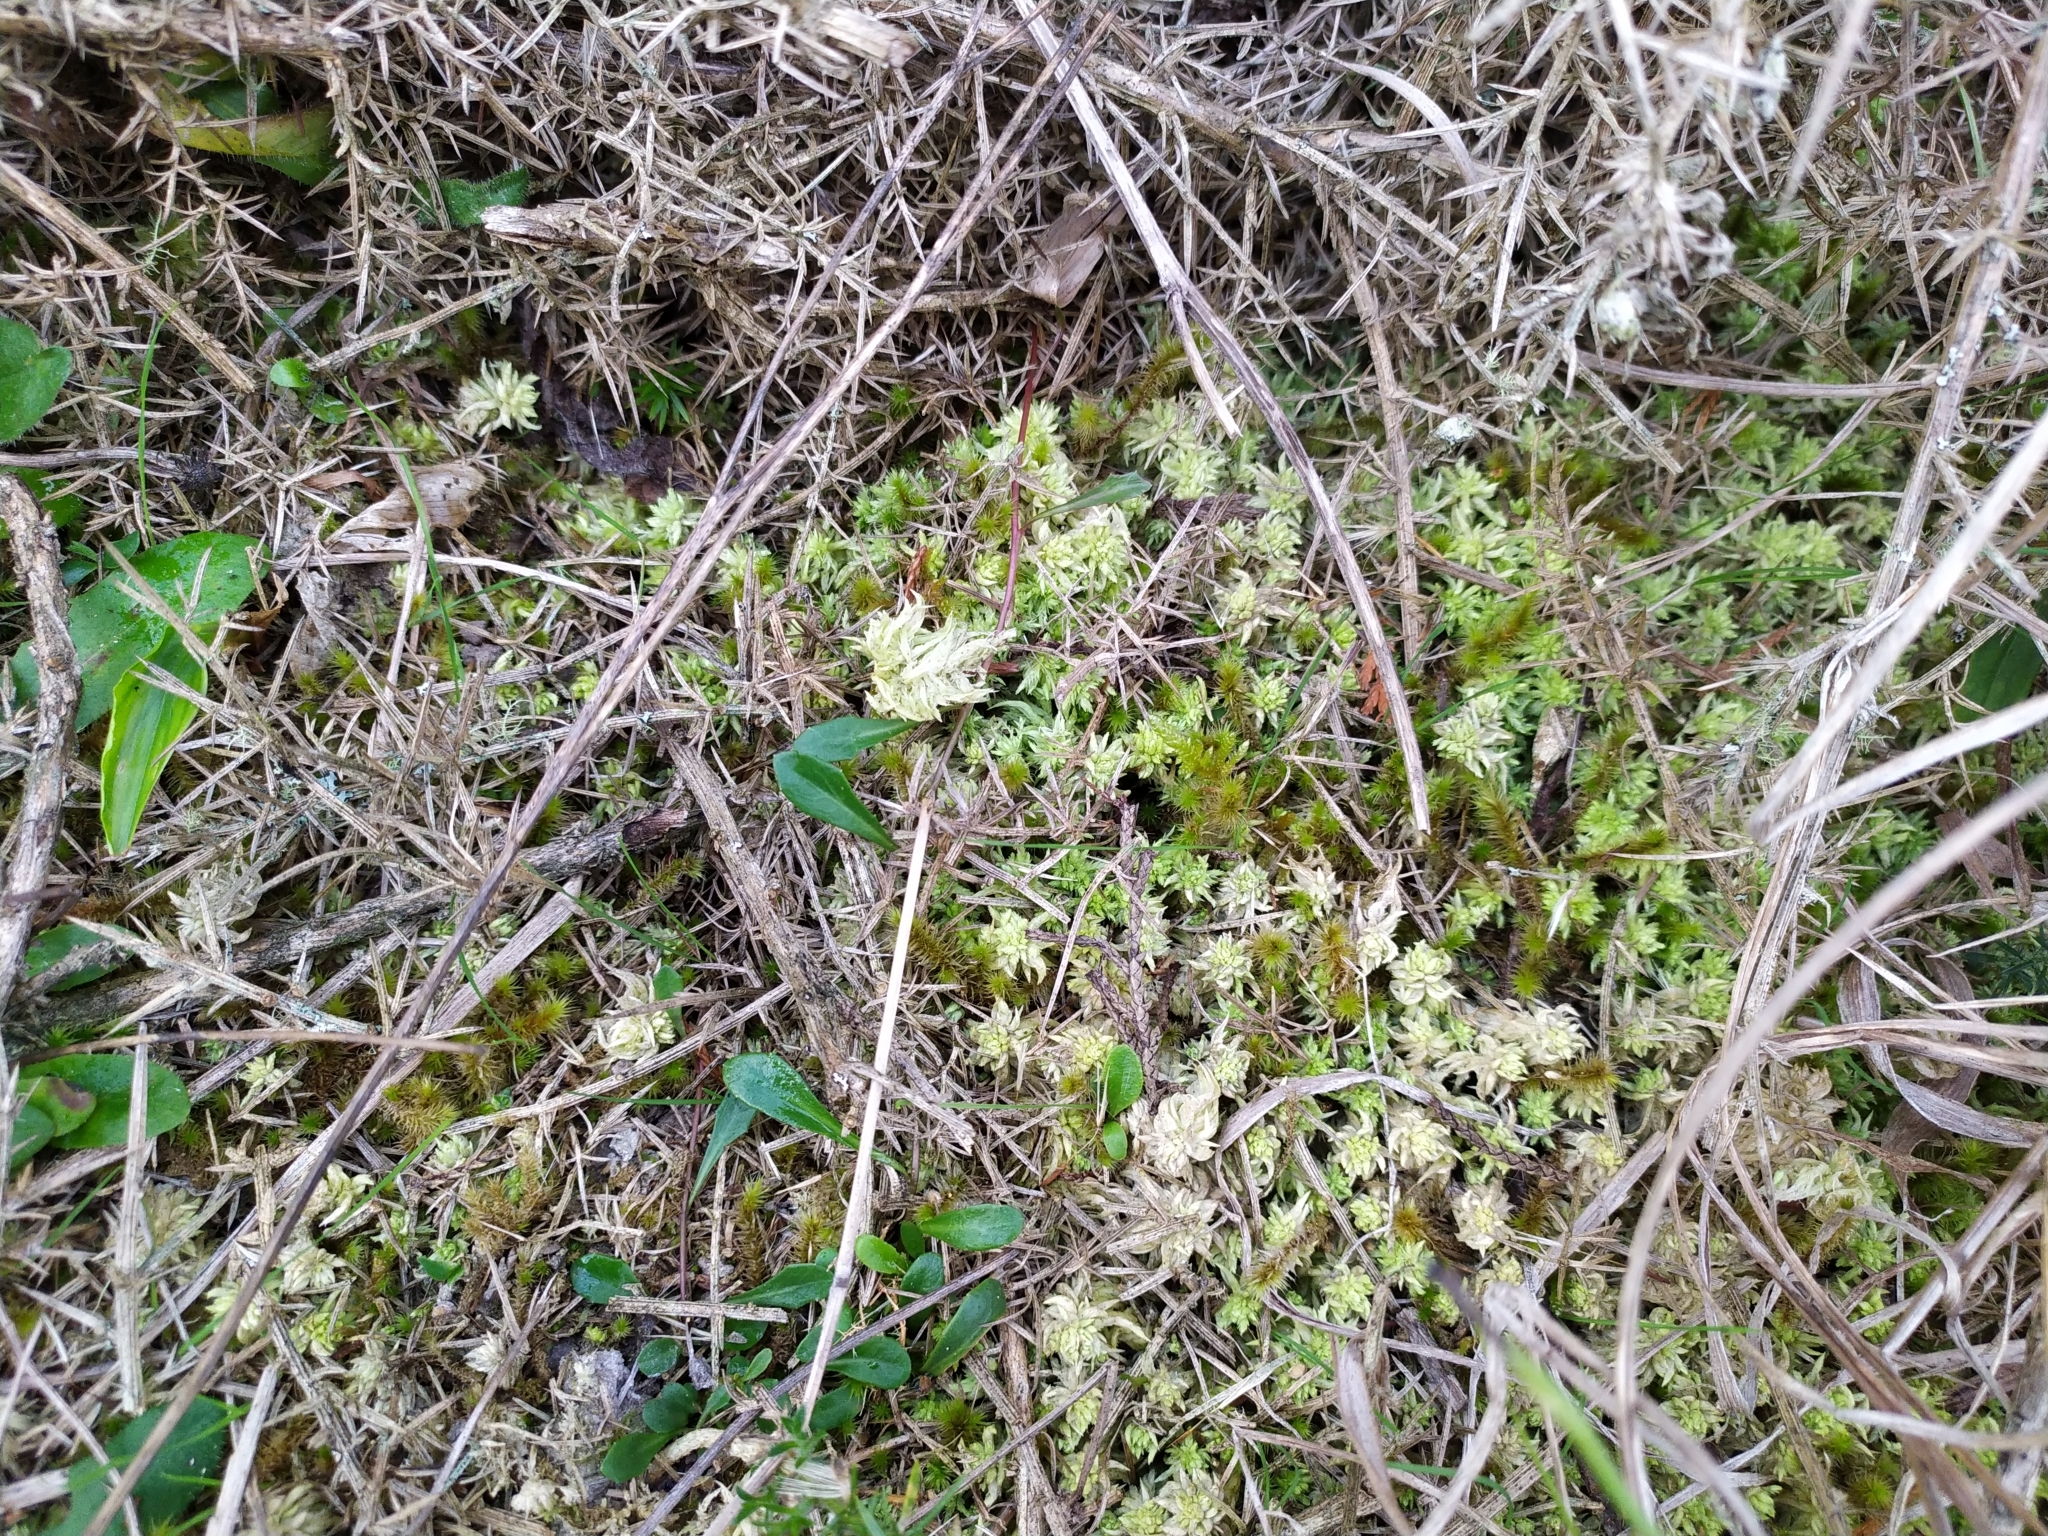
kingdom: Plantae
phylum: Bryophyta
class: Sphagnopsida
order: Sphagnales
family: Sphagnaceae
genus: Sphagnum
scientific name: Sphagnum cristatum
